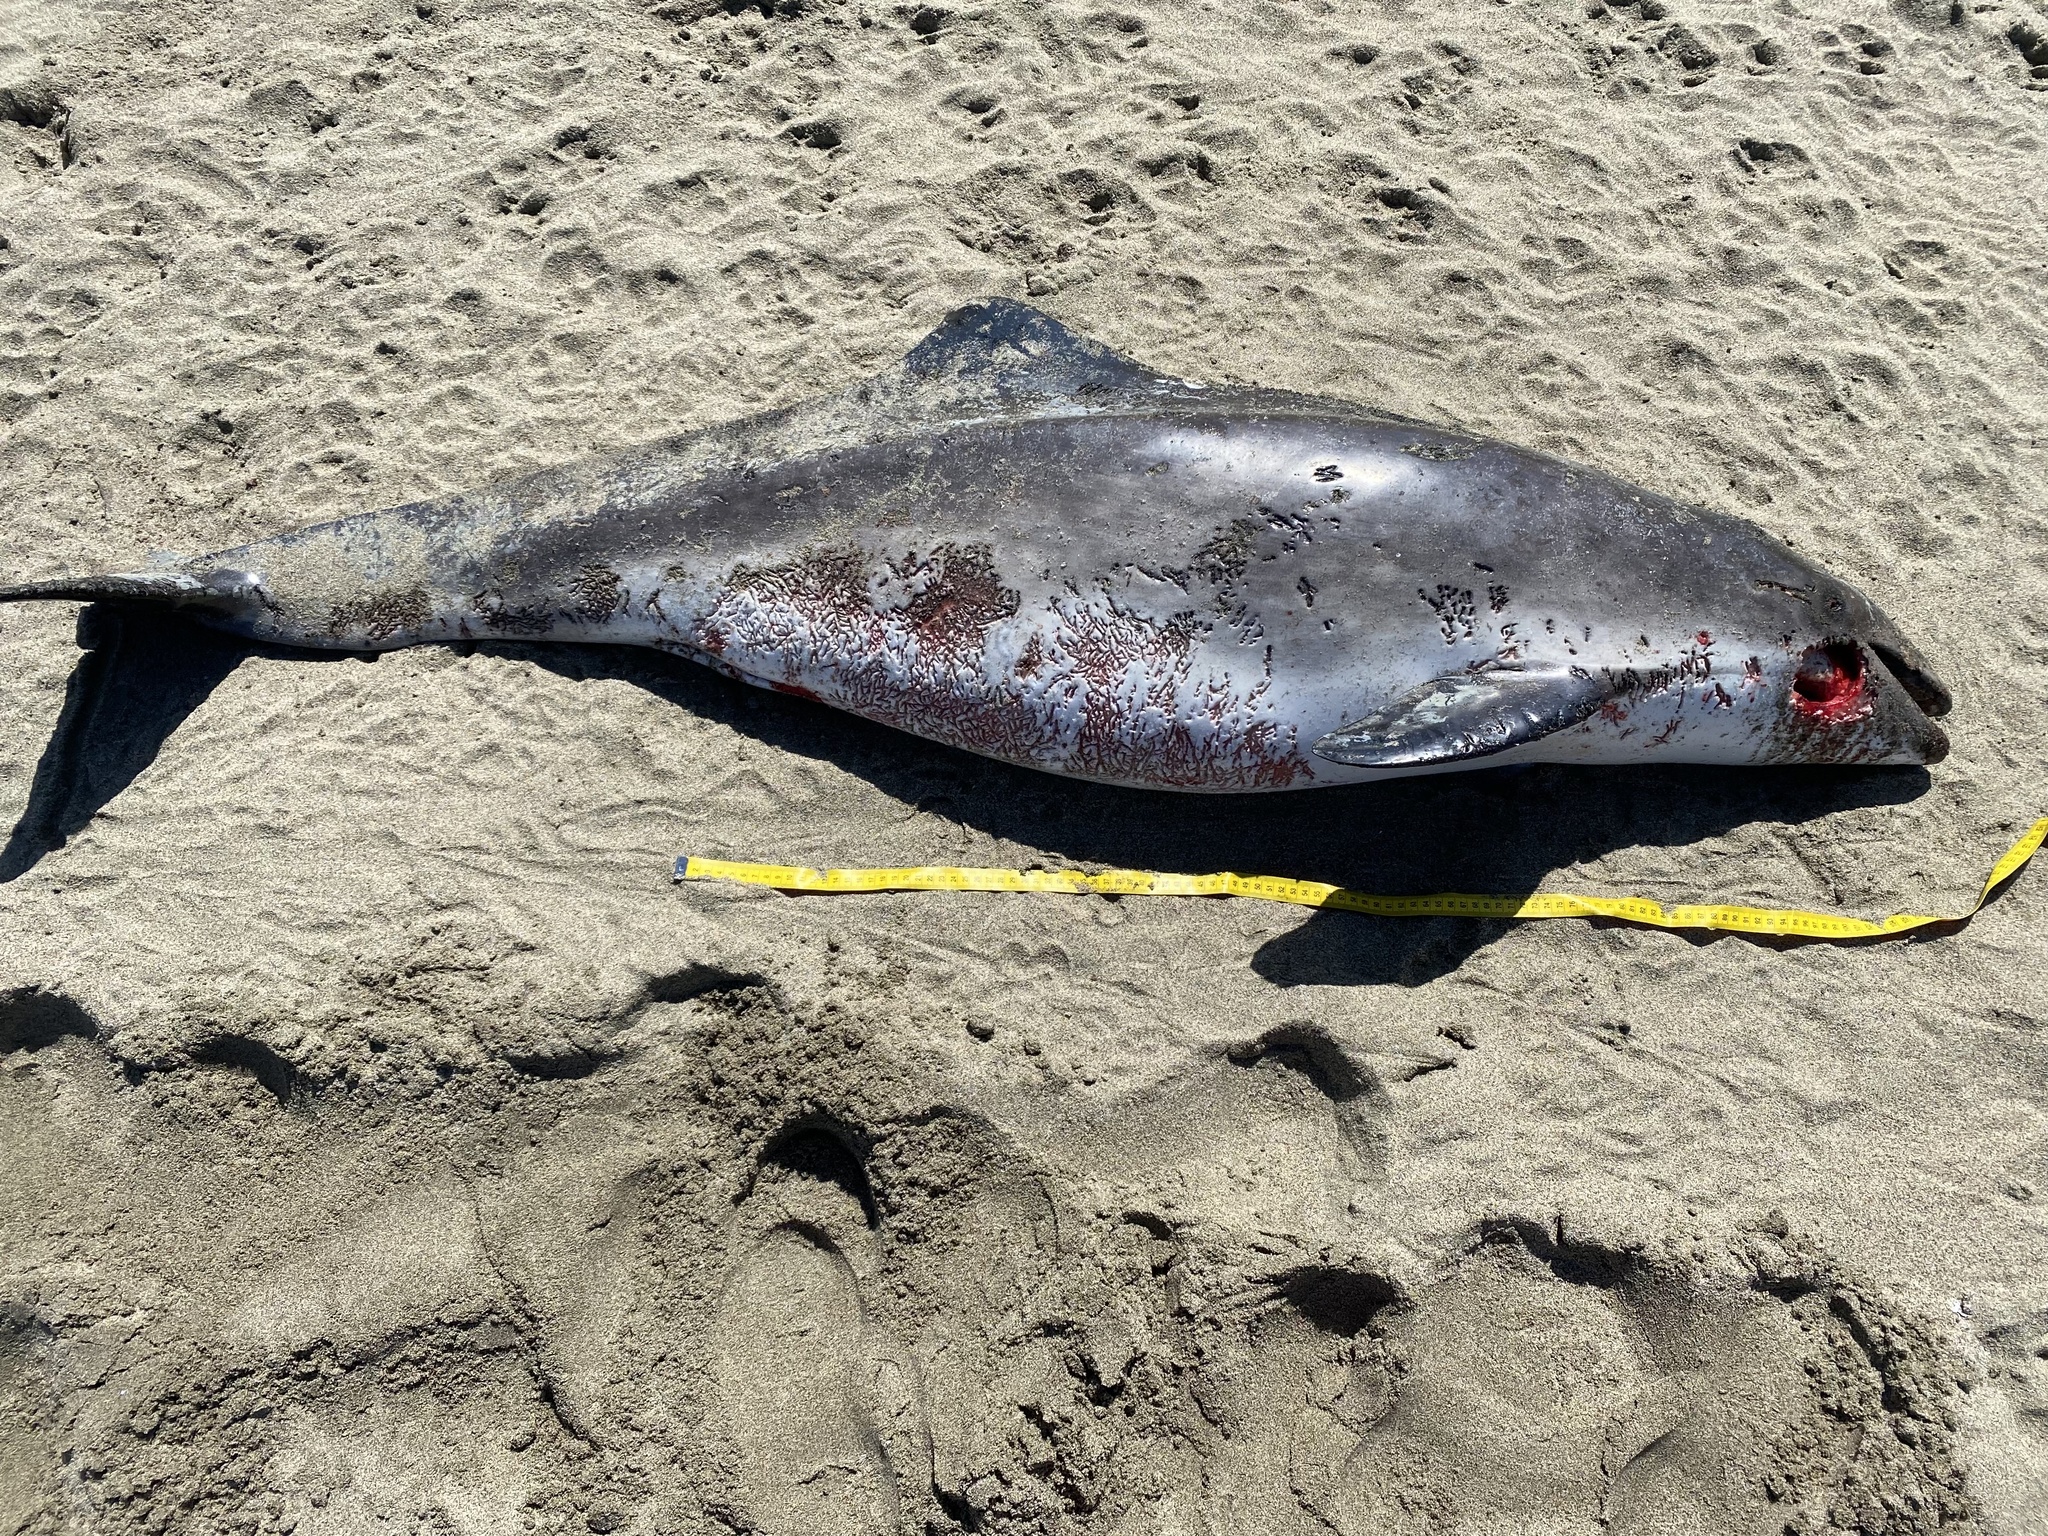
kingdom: Animalia
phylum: Chordata
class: Mammalia
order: Cetacea
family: Phocoenidae
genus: Phocoena
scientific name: Phocoena phocoena
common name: Harbor porpoise
